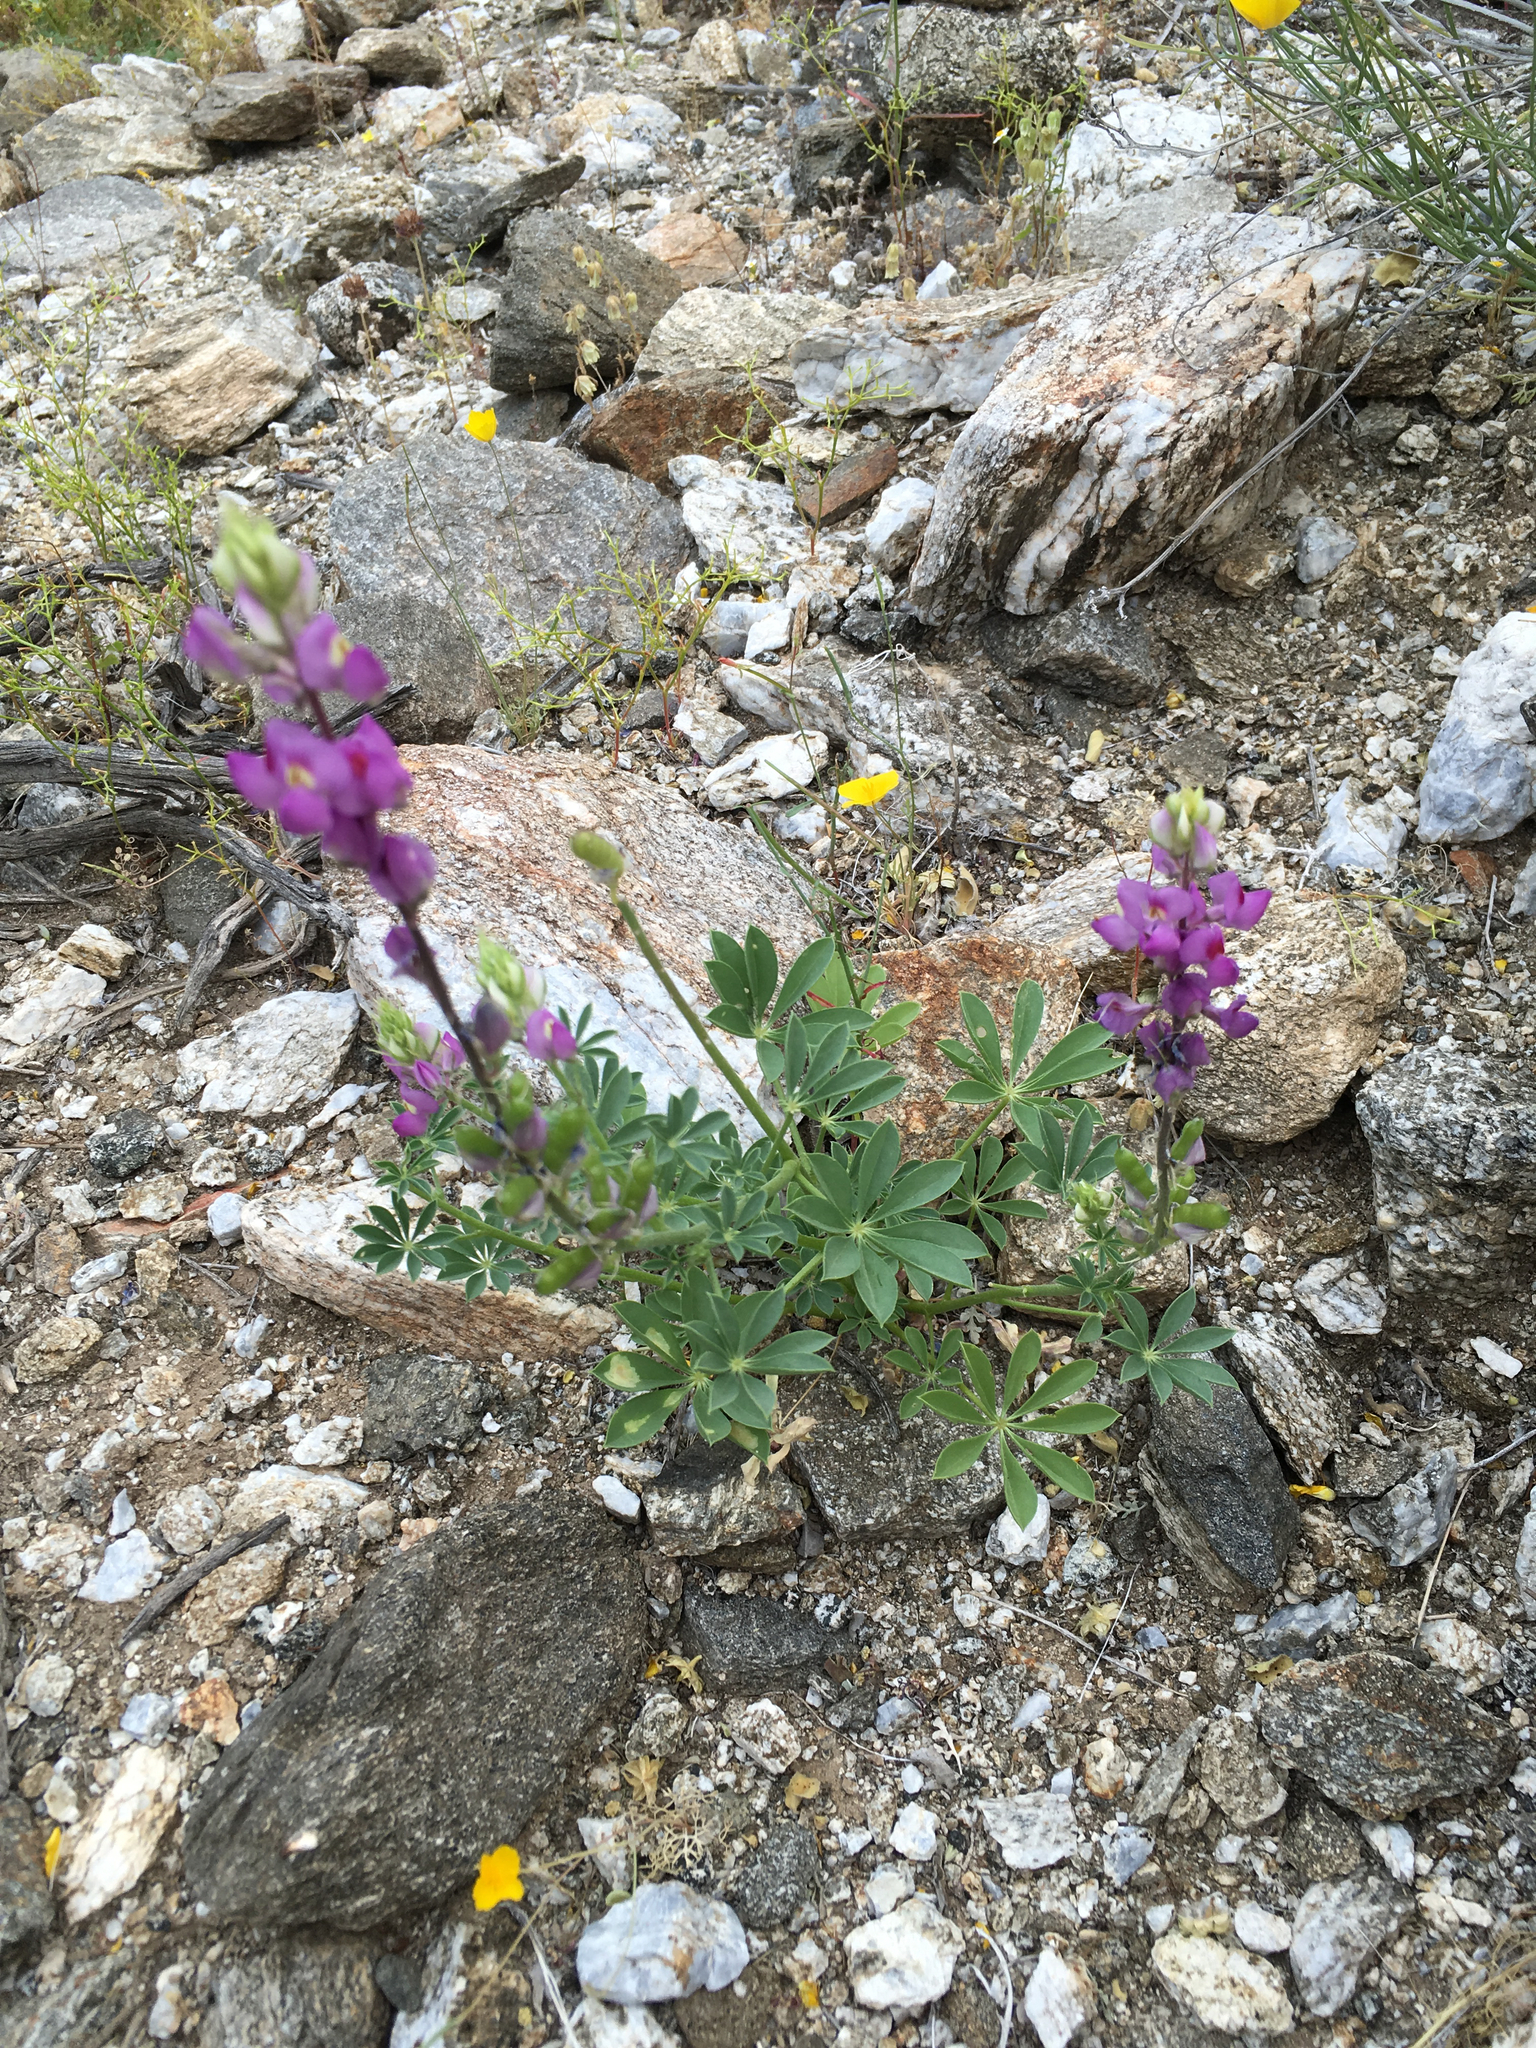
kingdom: Plantae
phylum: Tracheophyta
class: Magnoliopsida
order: Fabales
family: Fabaceae
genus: Lupinus
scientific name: Lupinus arizonicus
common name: Arizona lupine
